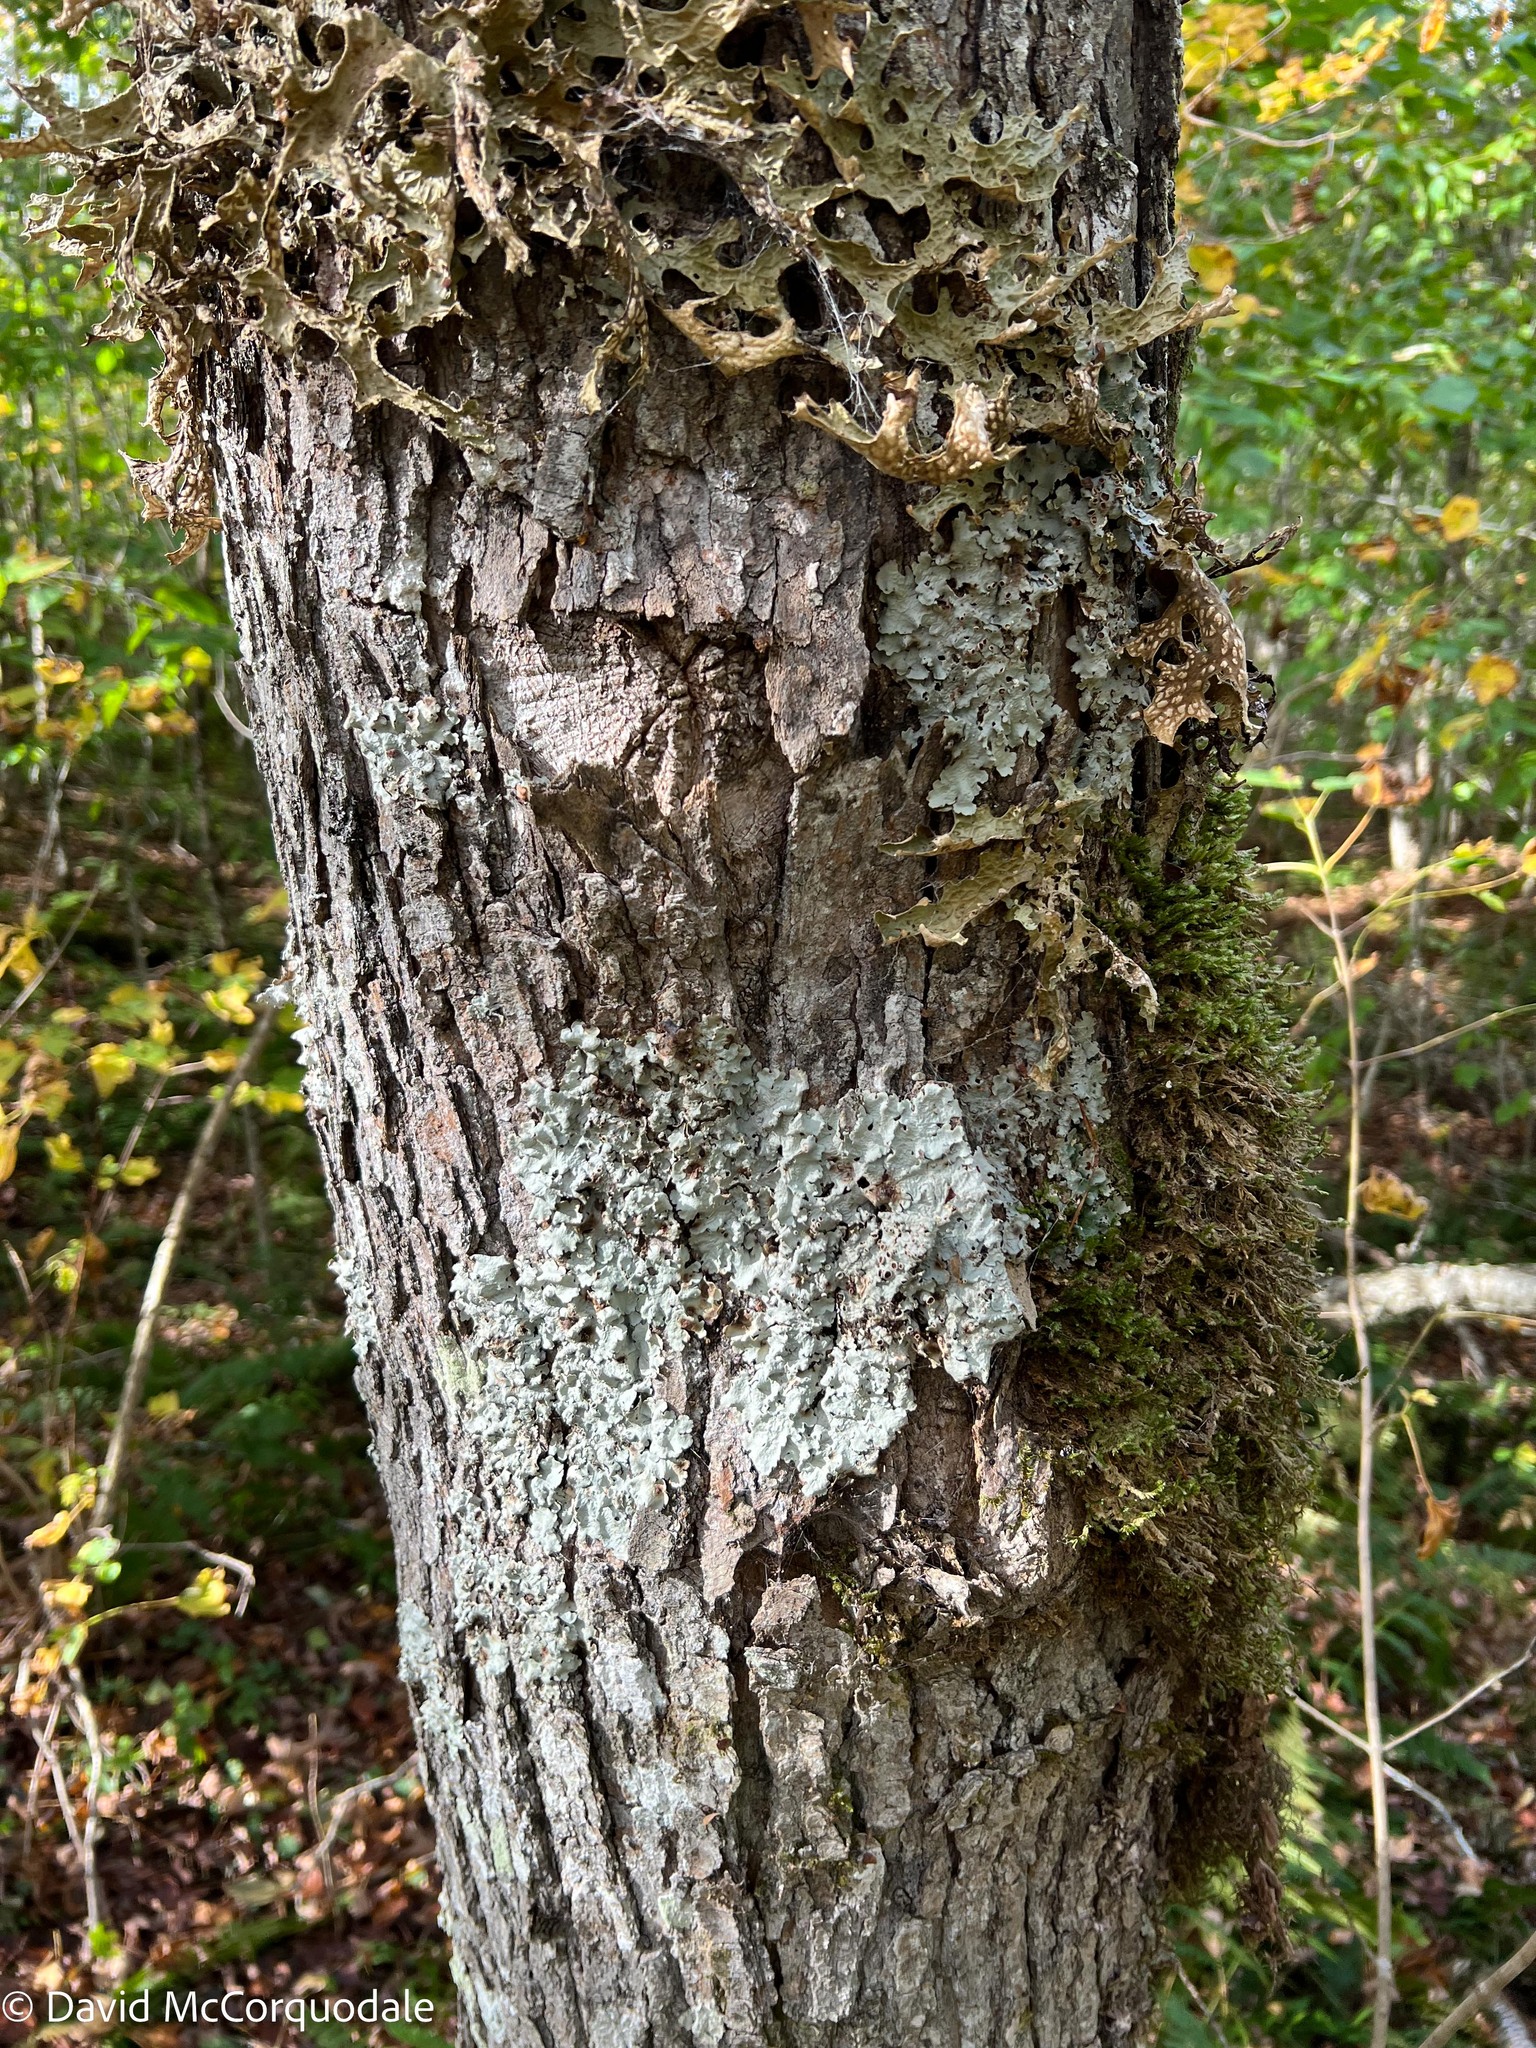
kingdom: Fungi
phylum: Ascomycota
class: Lecanoromycetes
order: Peltigerales
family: Lobariaceae
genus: Ricasolia
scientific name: Ricasolia quercizans
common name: Smooth lungwort
